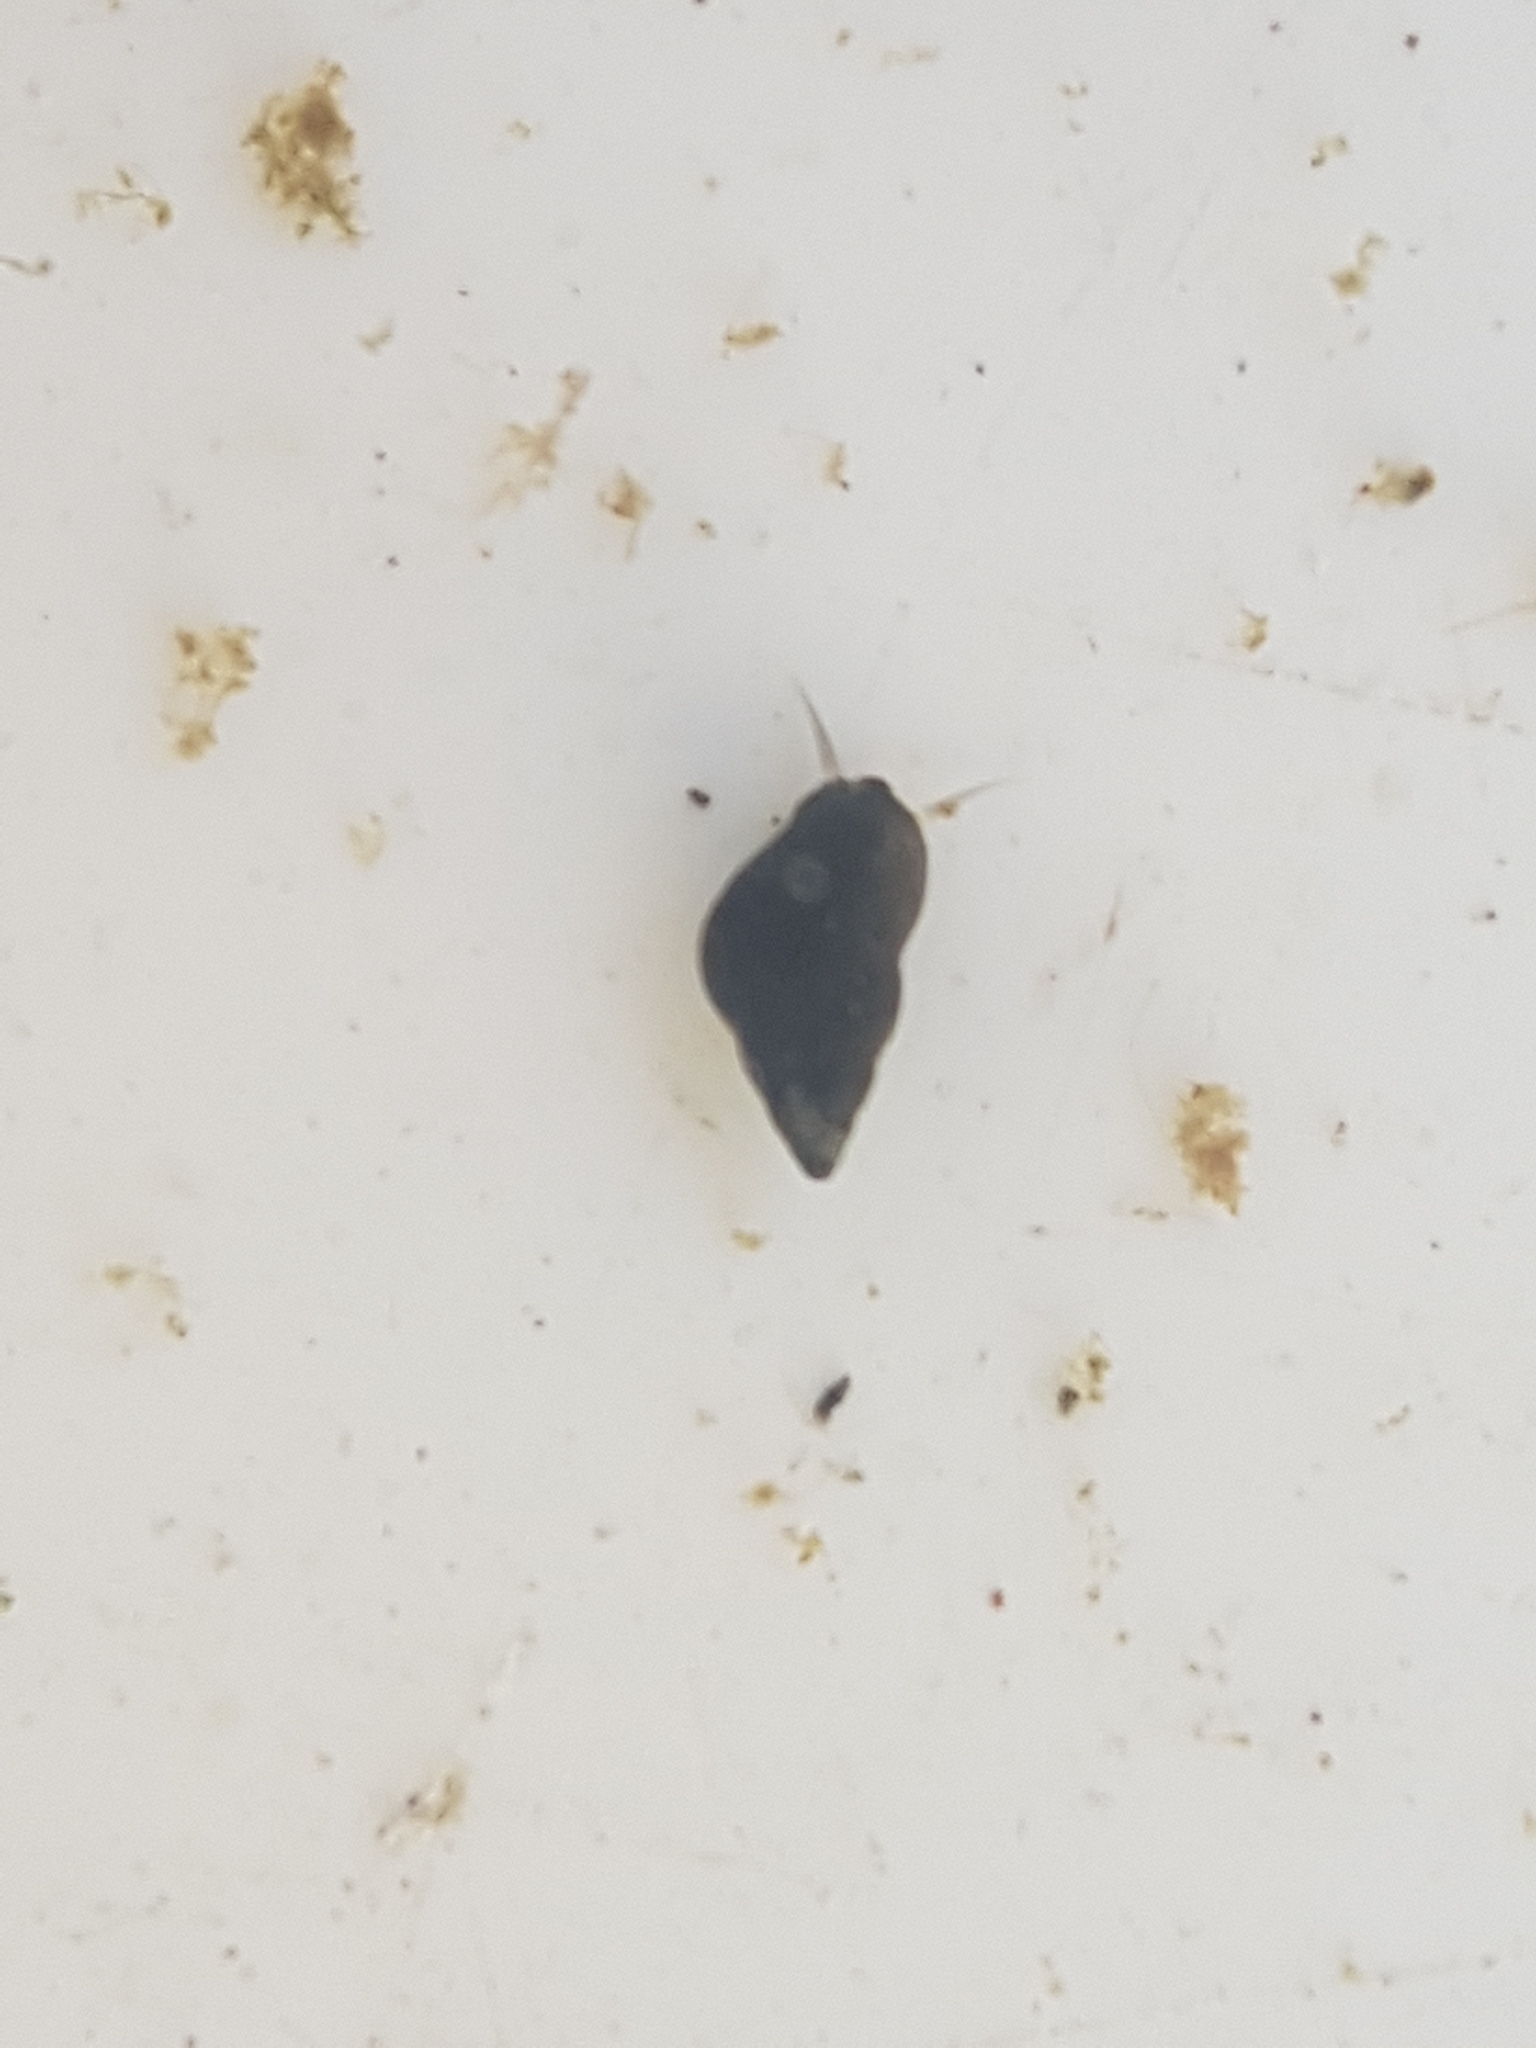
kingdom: Animalia
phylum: Mollusca
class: Gastropoda
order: Littorinimorpha
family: Tateidae
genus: Potamopyrgus
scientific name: Potamopyrgus antipodarum
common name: Jenkins' spire snail
